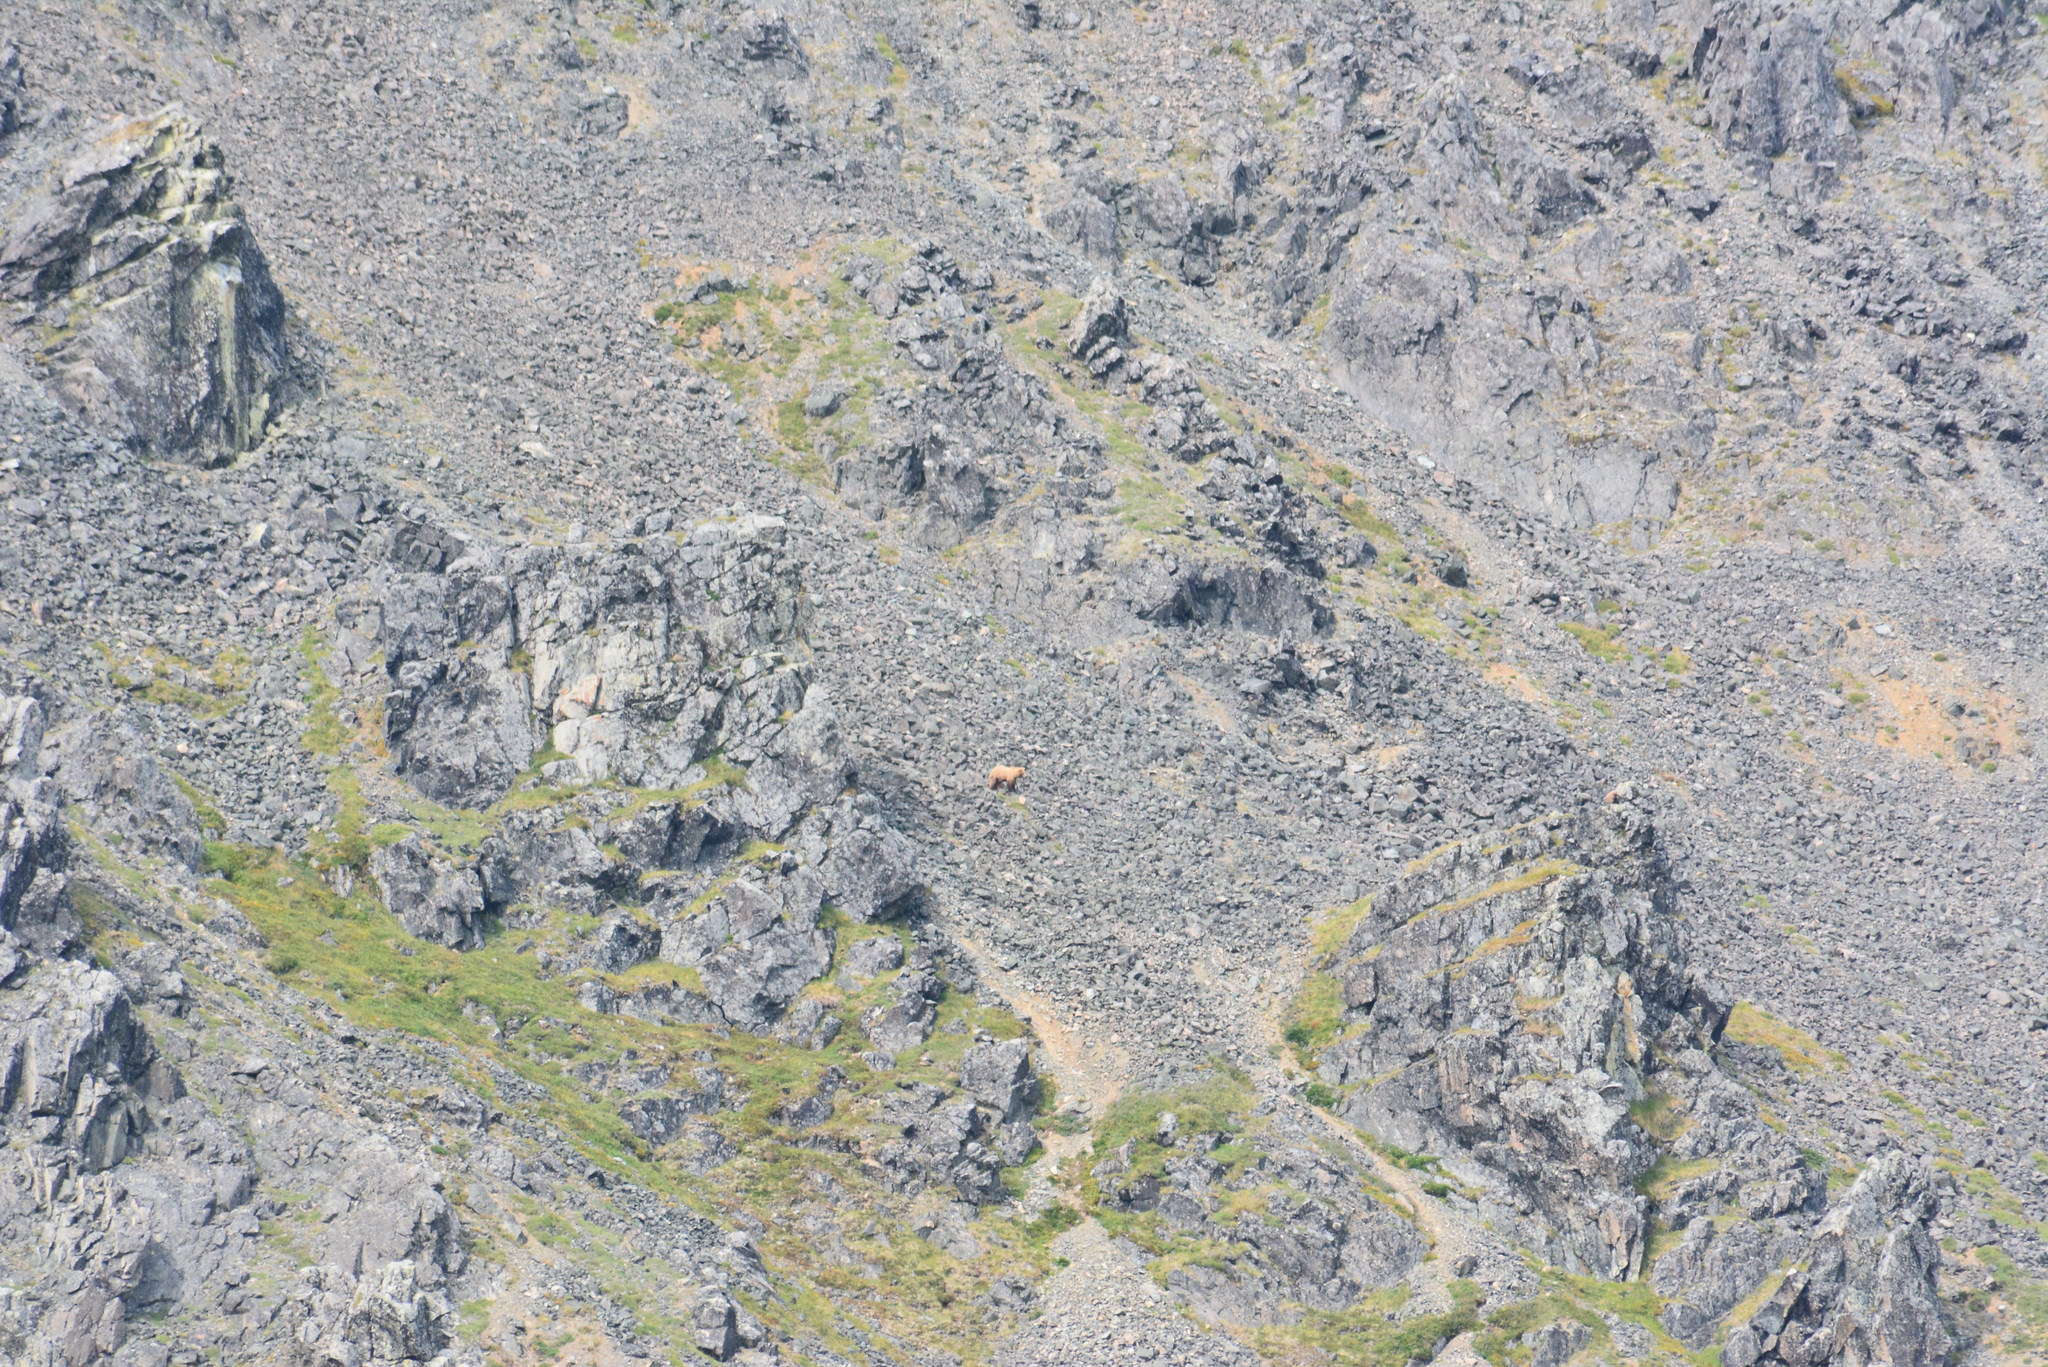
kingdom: Animalia
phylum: Chordata
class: Mammalia
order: Carnivora
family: Ursidae
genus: Ursus
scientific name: Ursus arctos
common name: Brown bear
